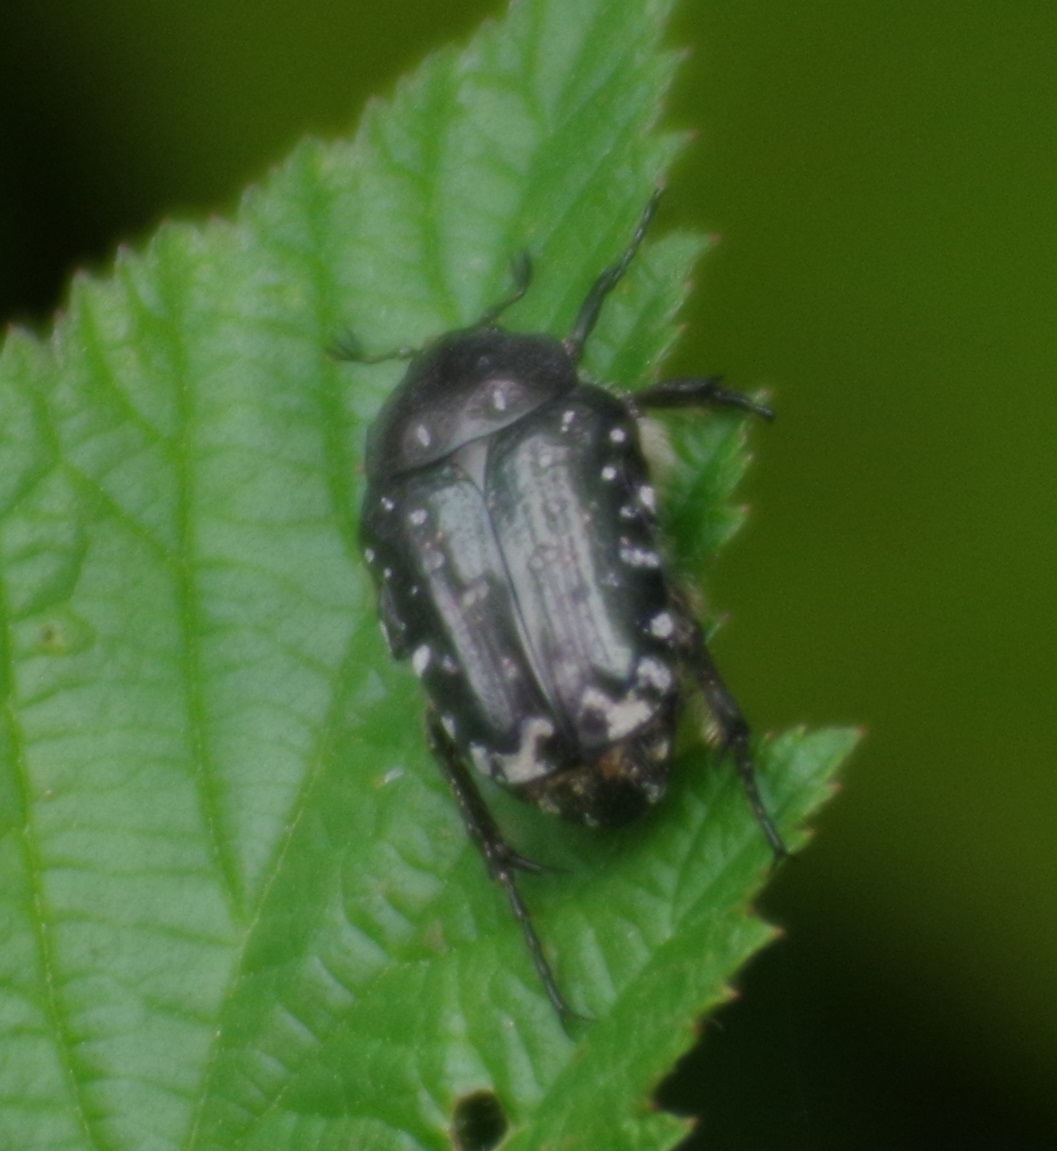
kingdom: Animalia
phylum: Arthropoda
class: Insecta
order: Coleoptera
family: Scarabaeidae
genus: Oxythyrea
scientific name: Oxythyrea funesta
